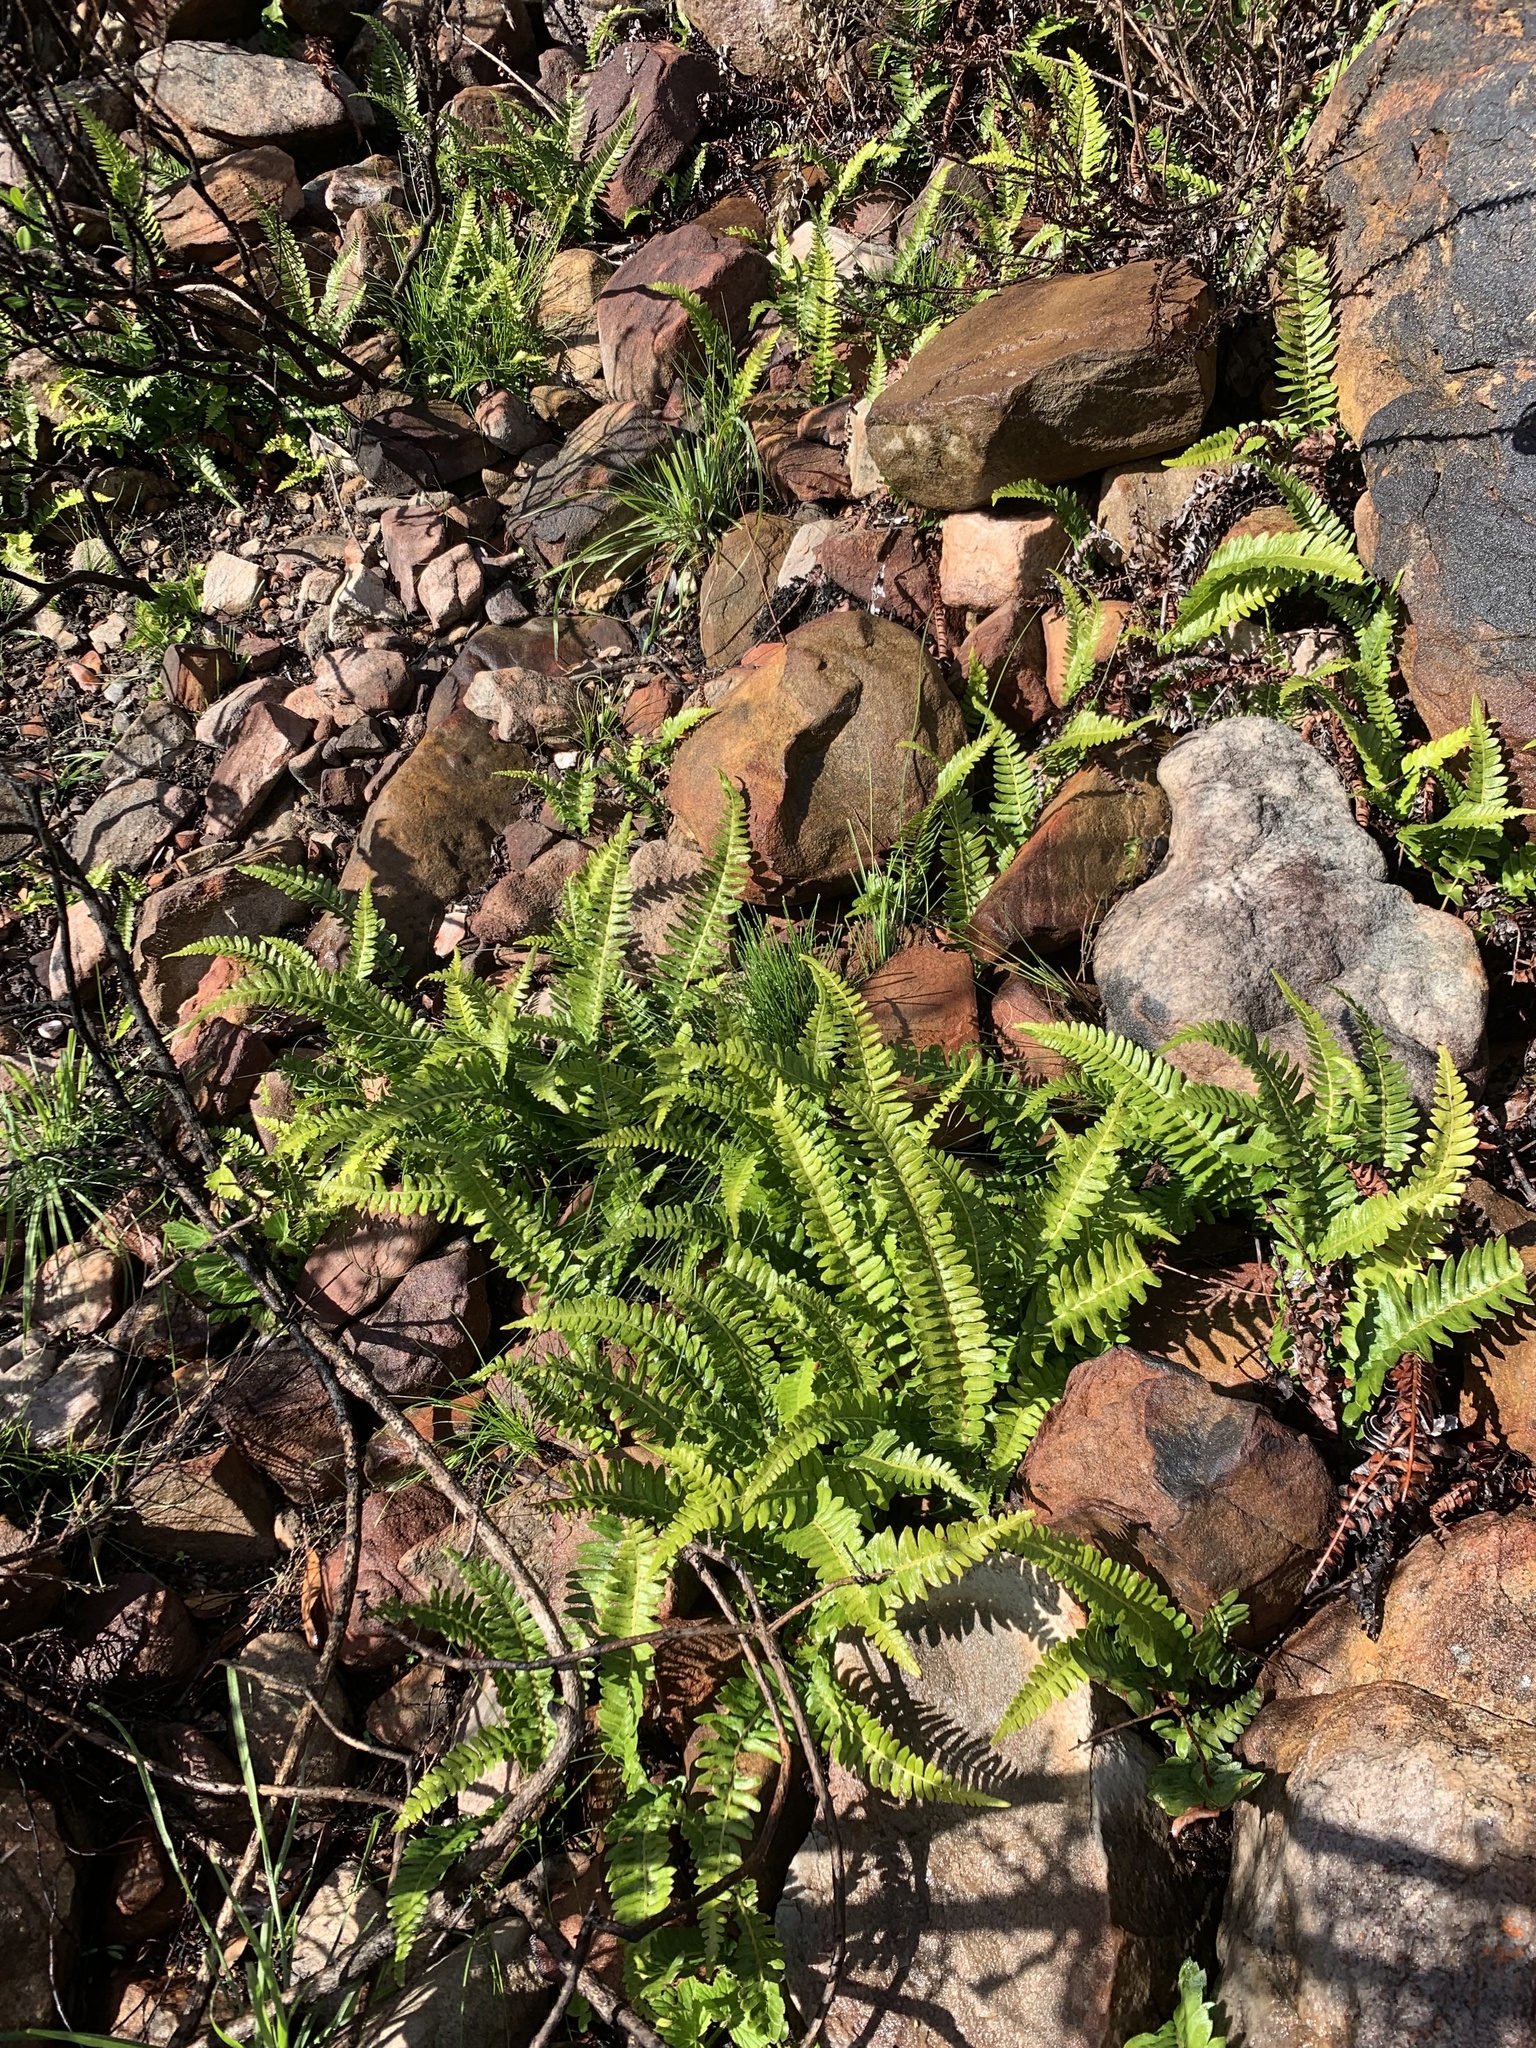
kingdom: Plantae
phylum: Tracheophyta
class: Polypodiopsida
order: Polypodiales
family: Blechnaceae
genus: Blechnum
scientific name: Blechnum punctulatum
